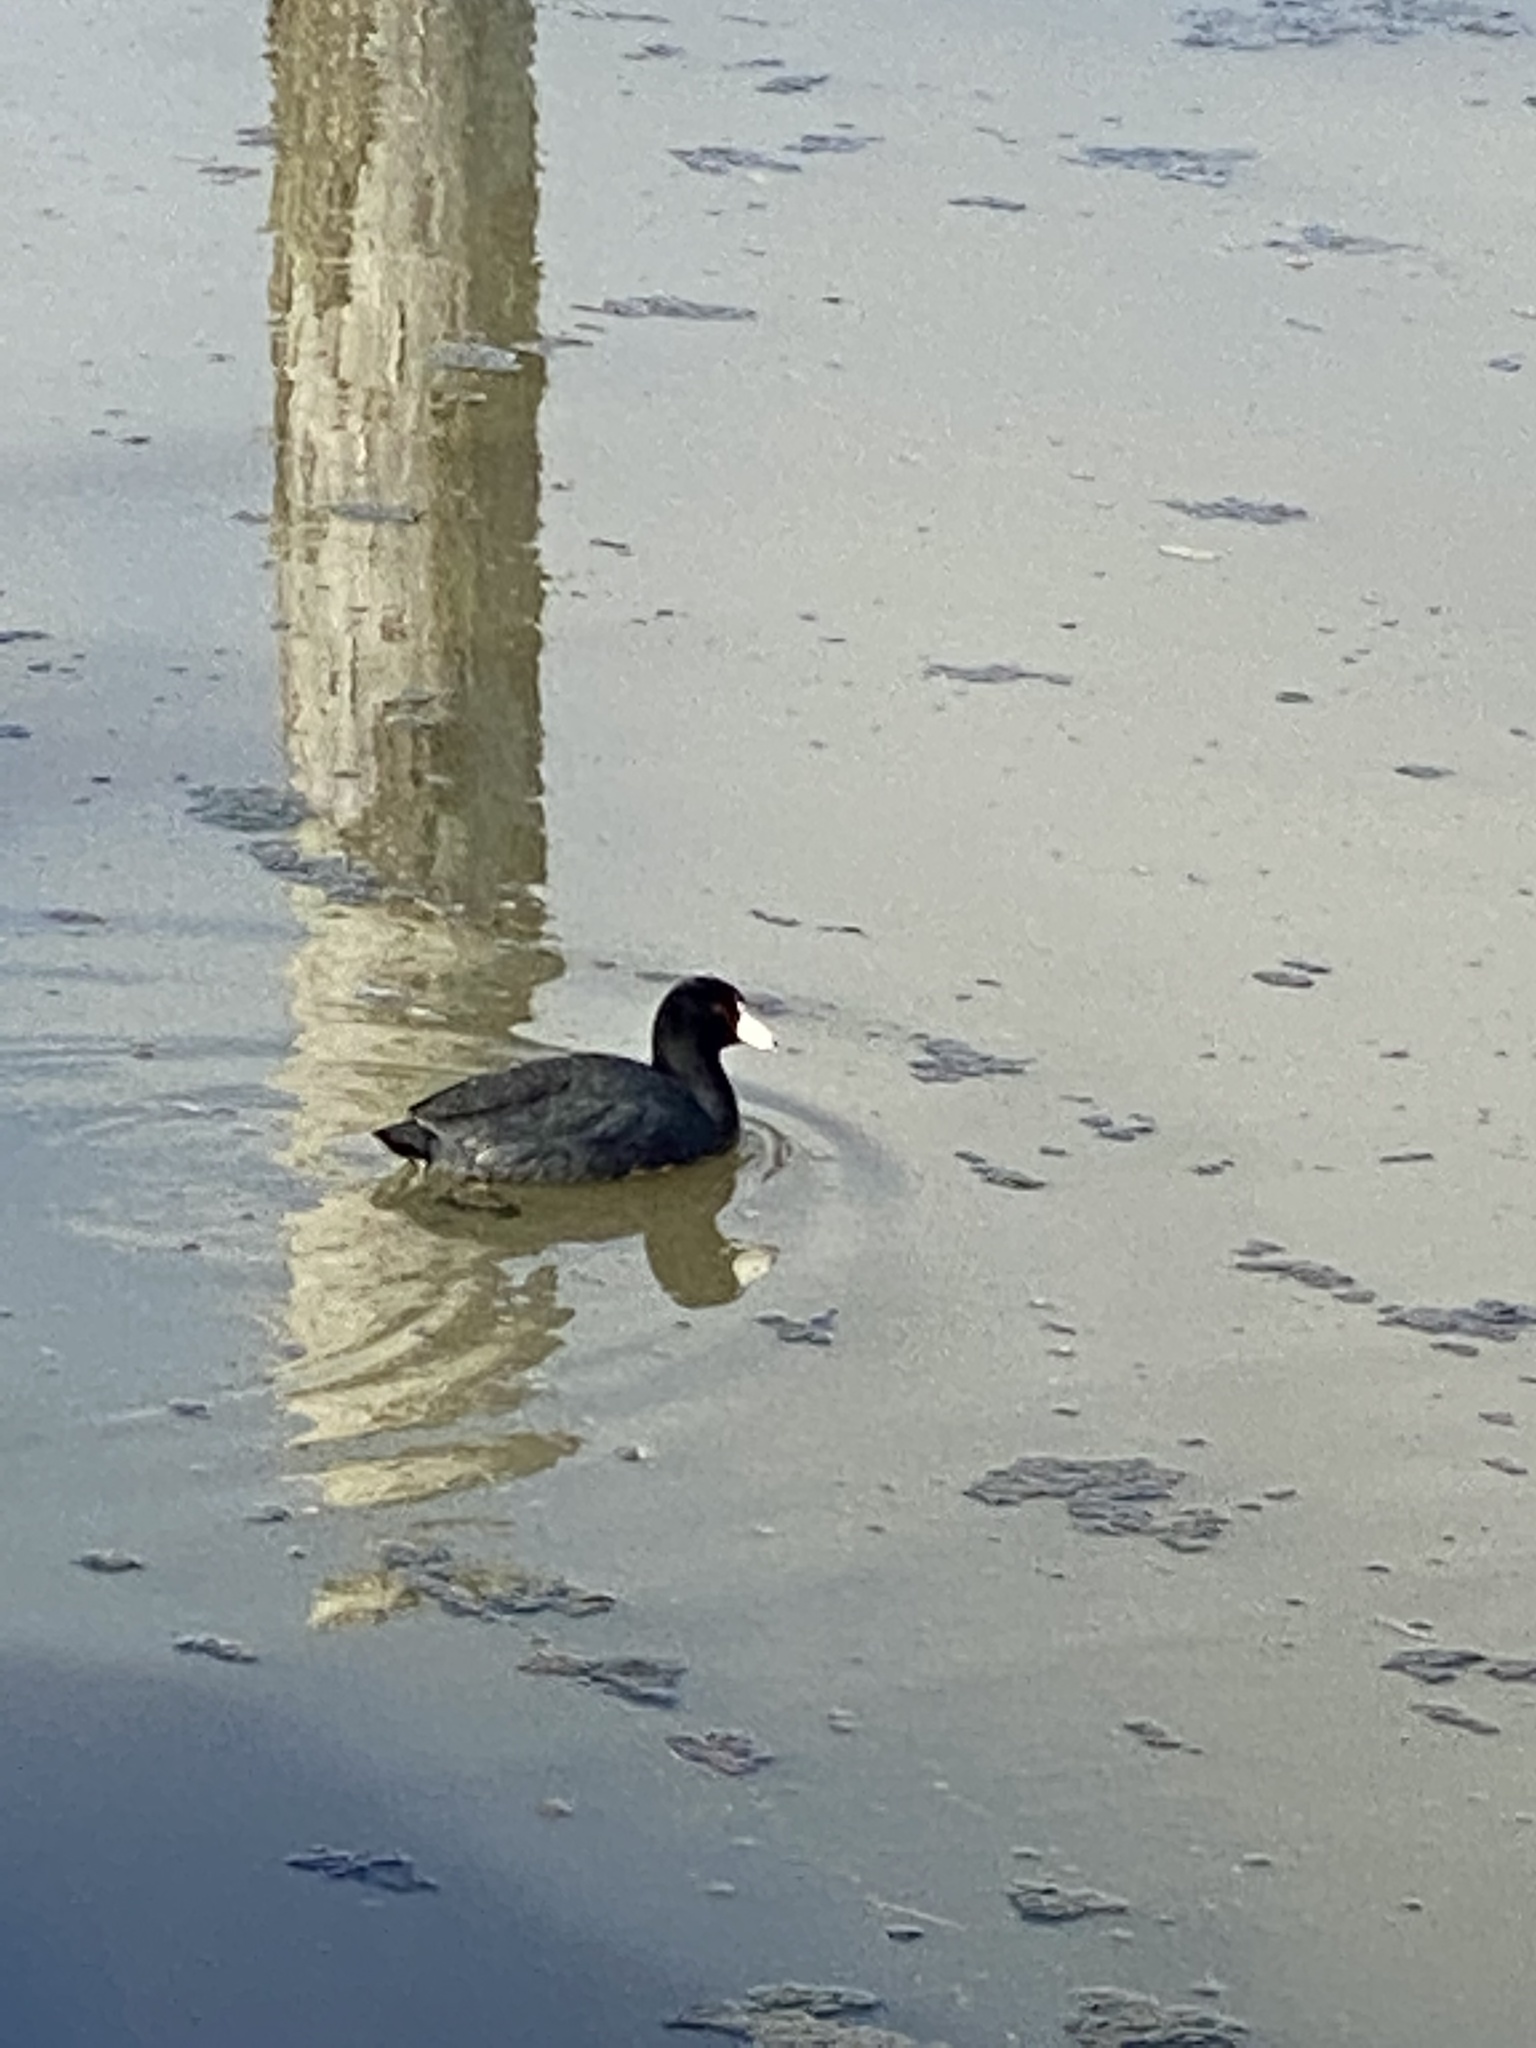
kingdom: Animalia
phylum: Chordata
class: Aves
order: Gruiformes
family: Rallidae
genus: Fulica
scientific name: Fulica americana
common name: American coot
